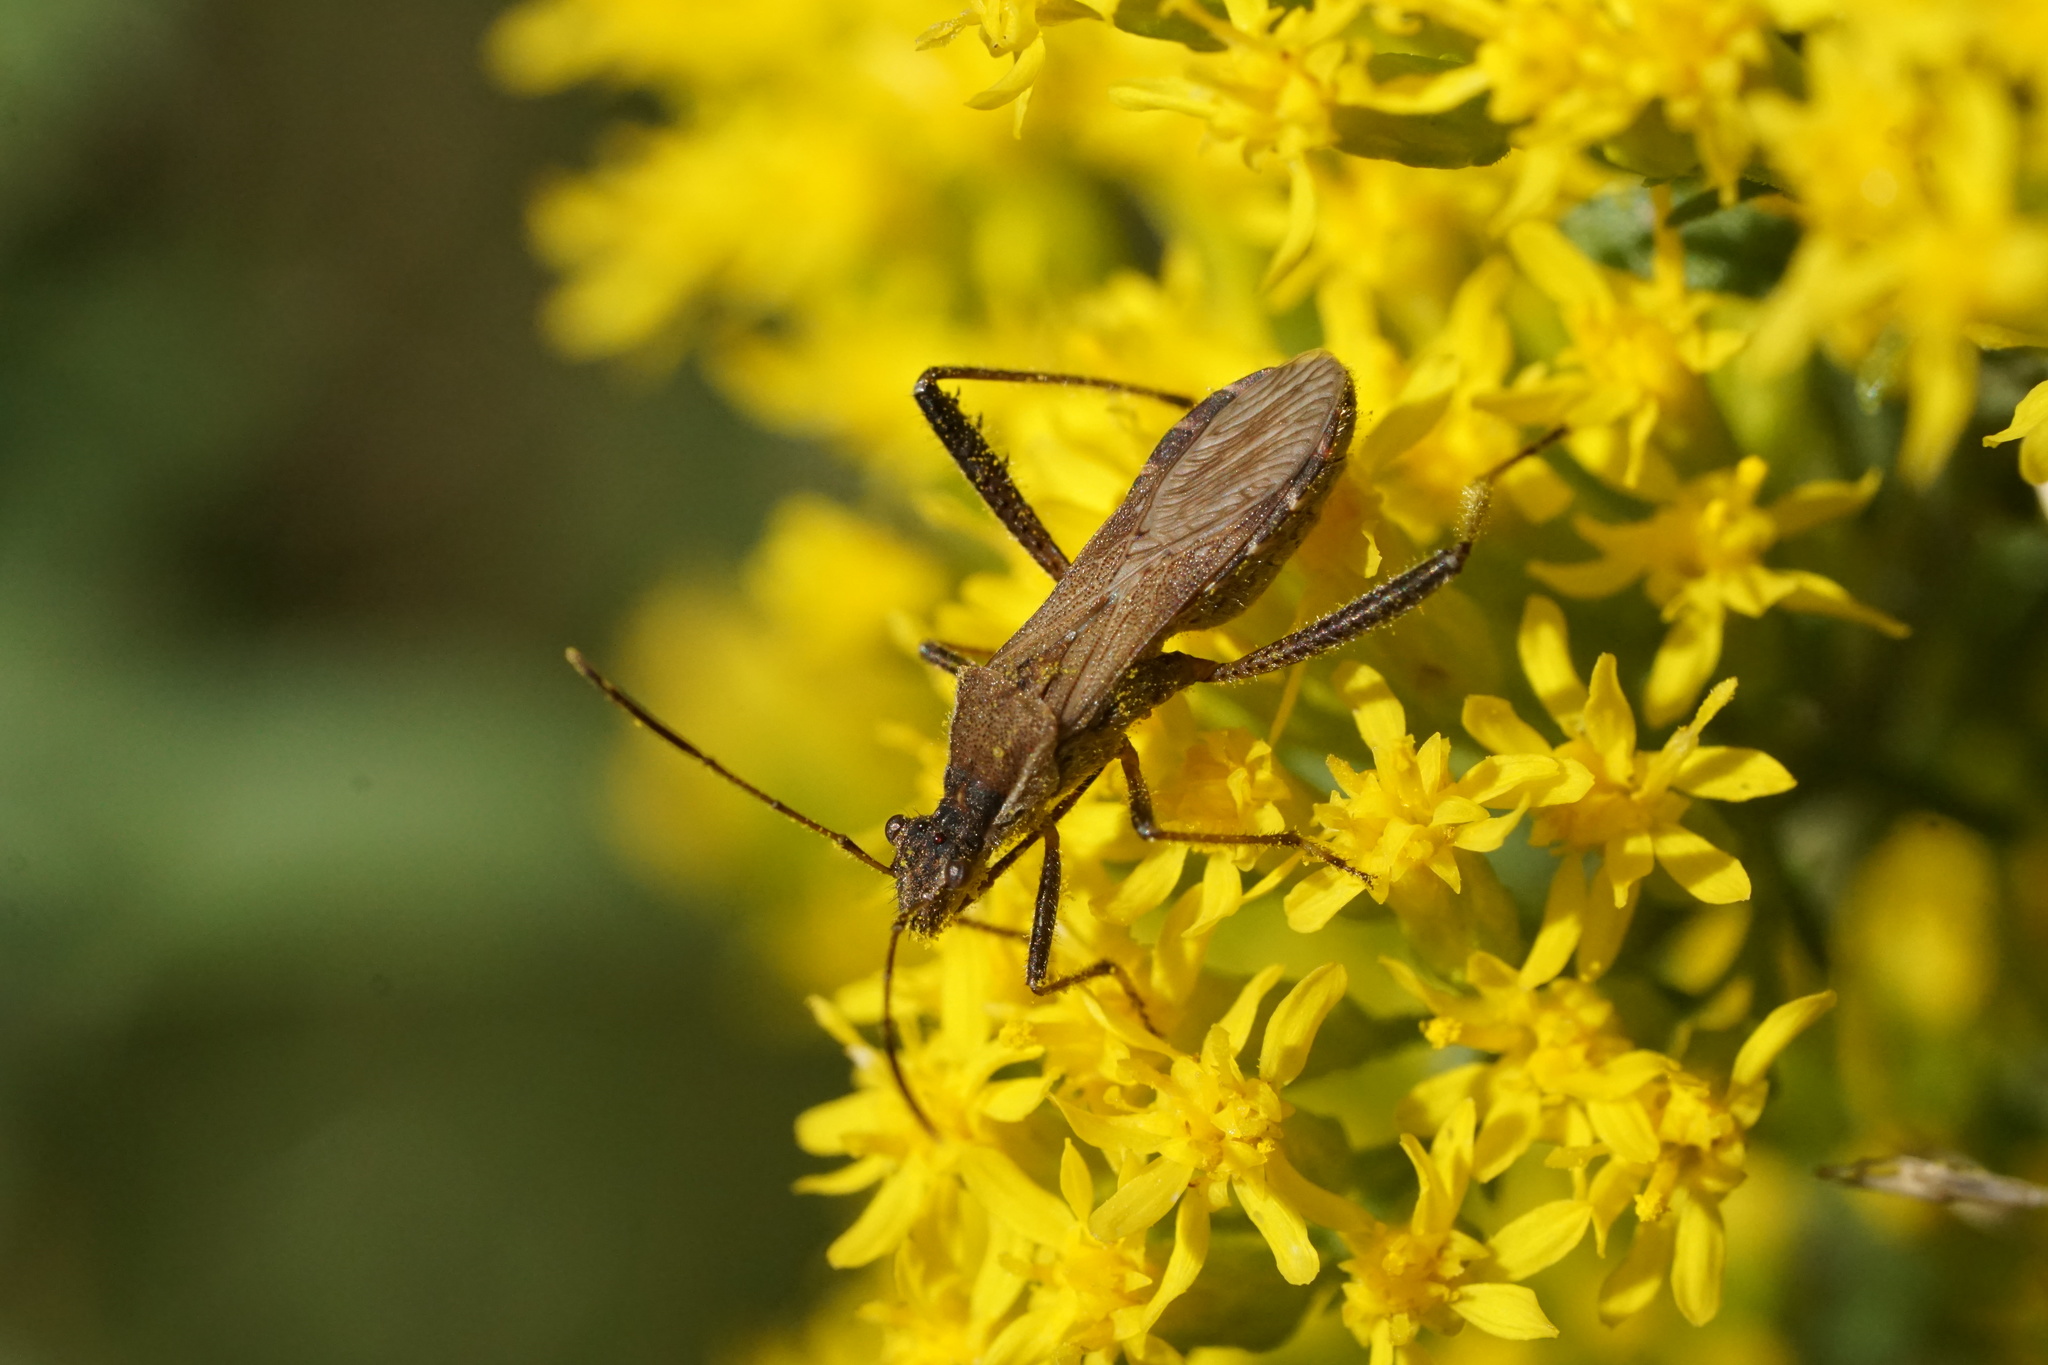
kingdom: Animalia
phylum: Arthropoda
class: Insecta
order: Hemiptera
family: Alydidae
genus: Alydus
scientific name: Alydus pilosulus
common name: Broad-headed bug
